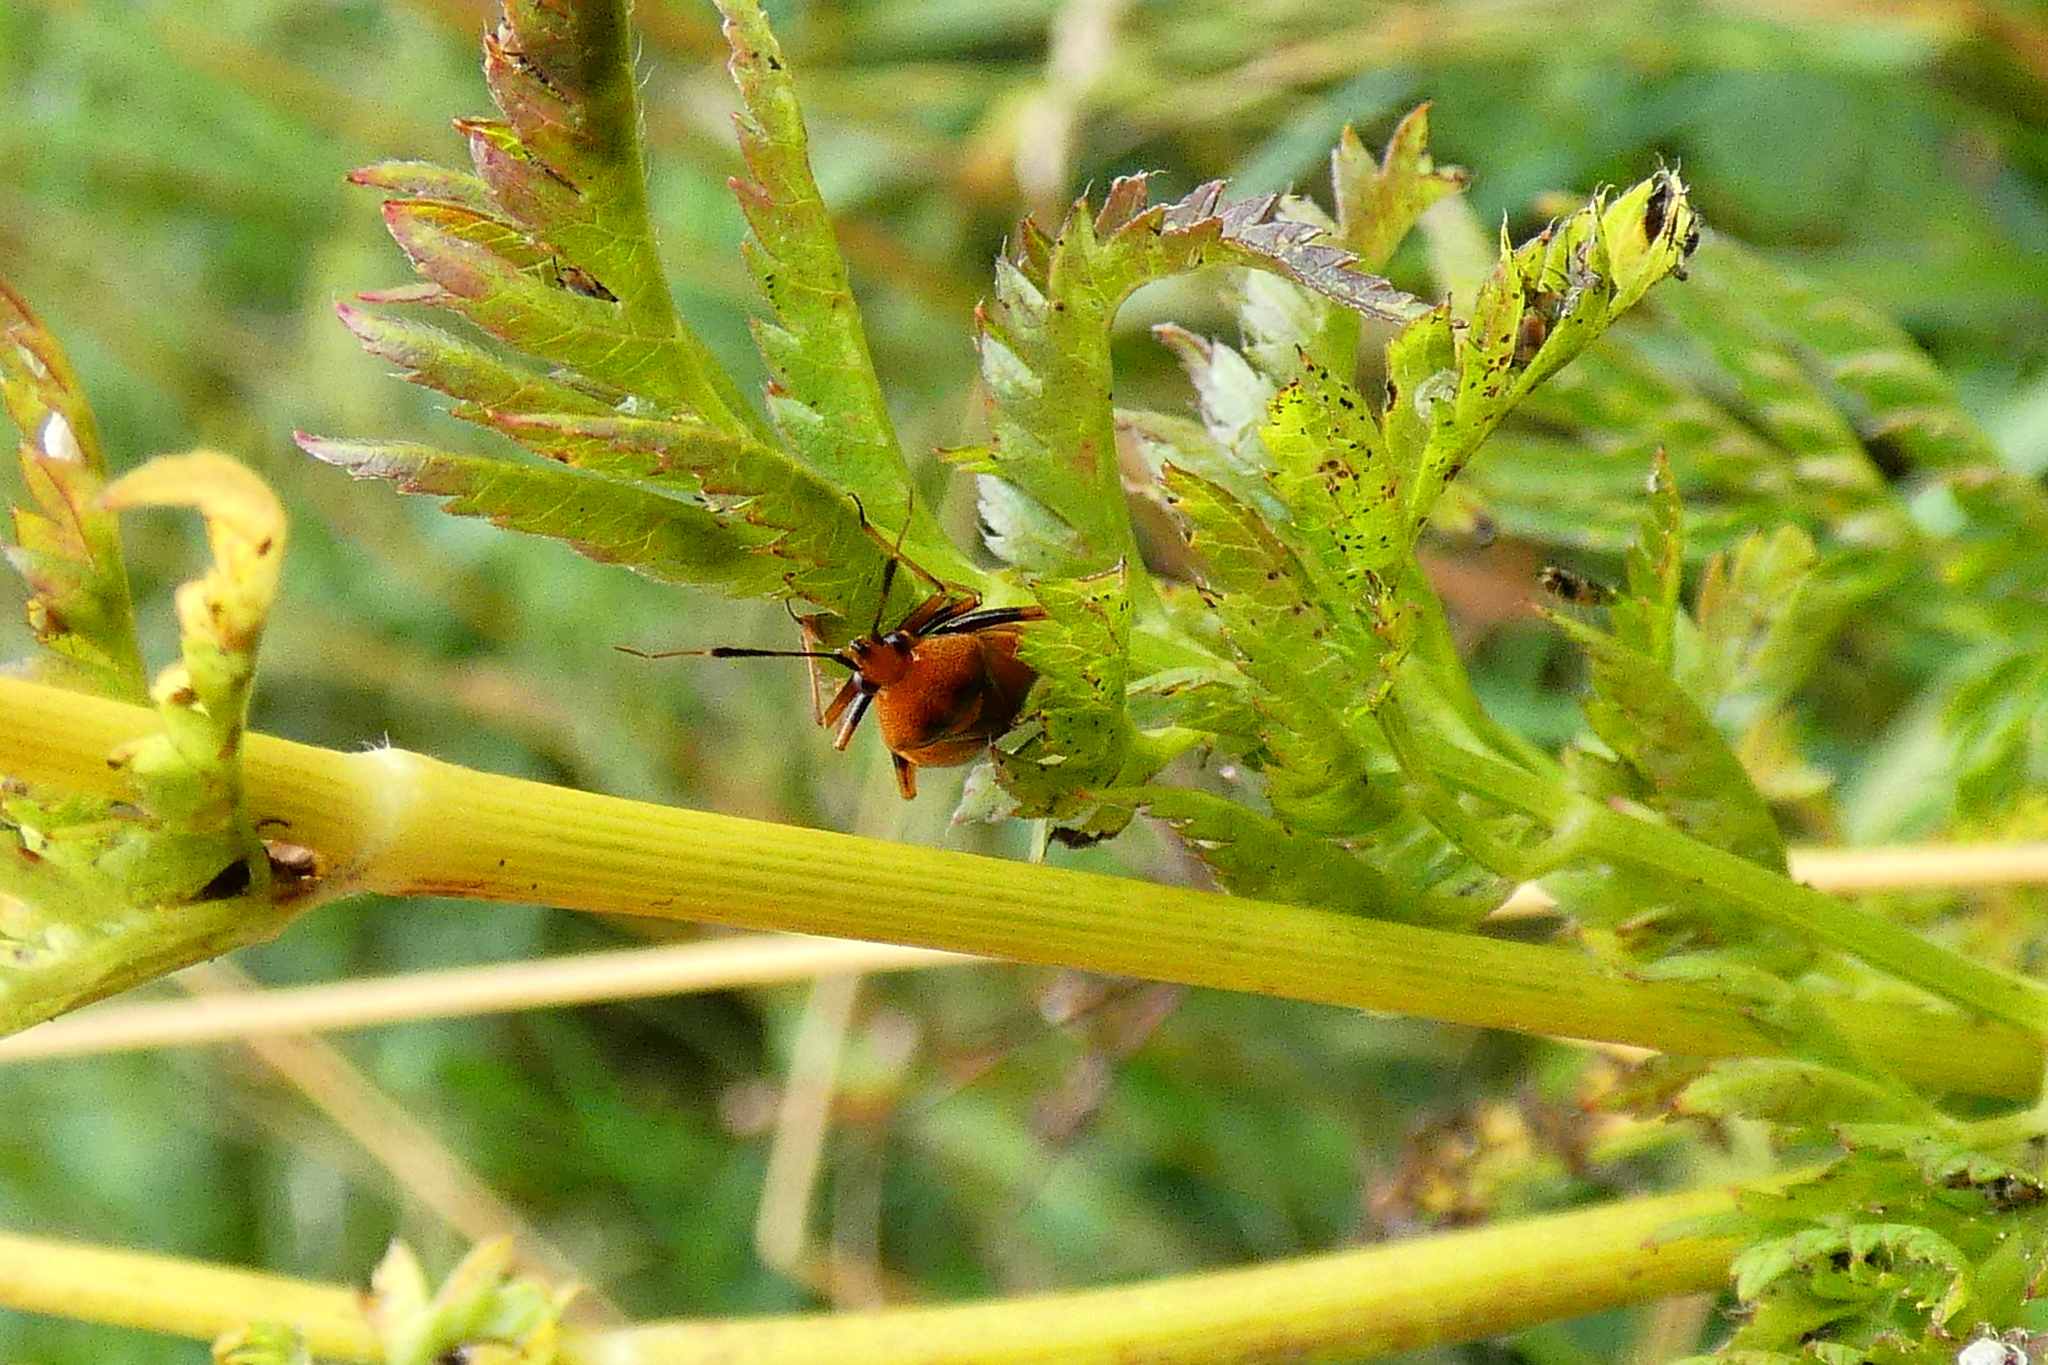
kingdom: Animalia
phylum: Arthropoda
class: Insecta
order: Hemiptera
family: Miridae
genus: Deraeocoris
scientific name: Deraeocoris ruber
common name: Plant bug
